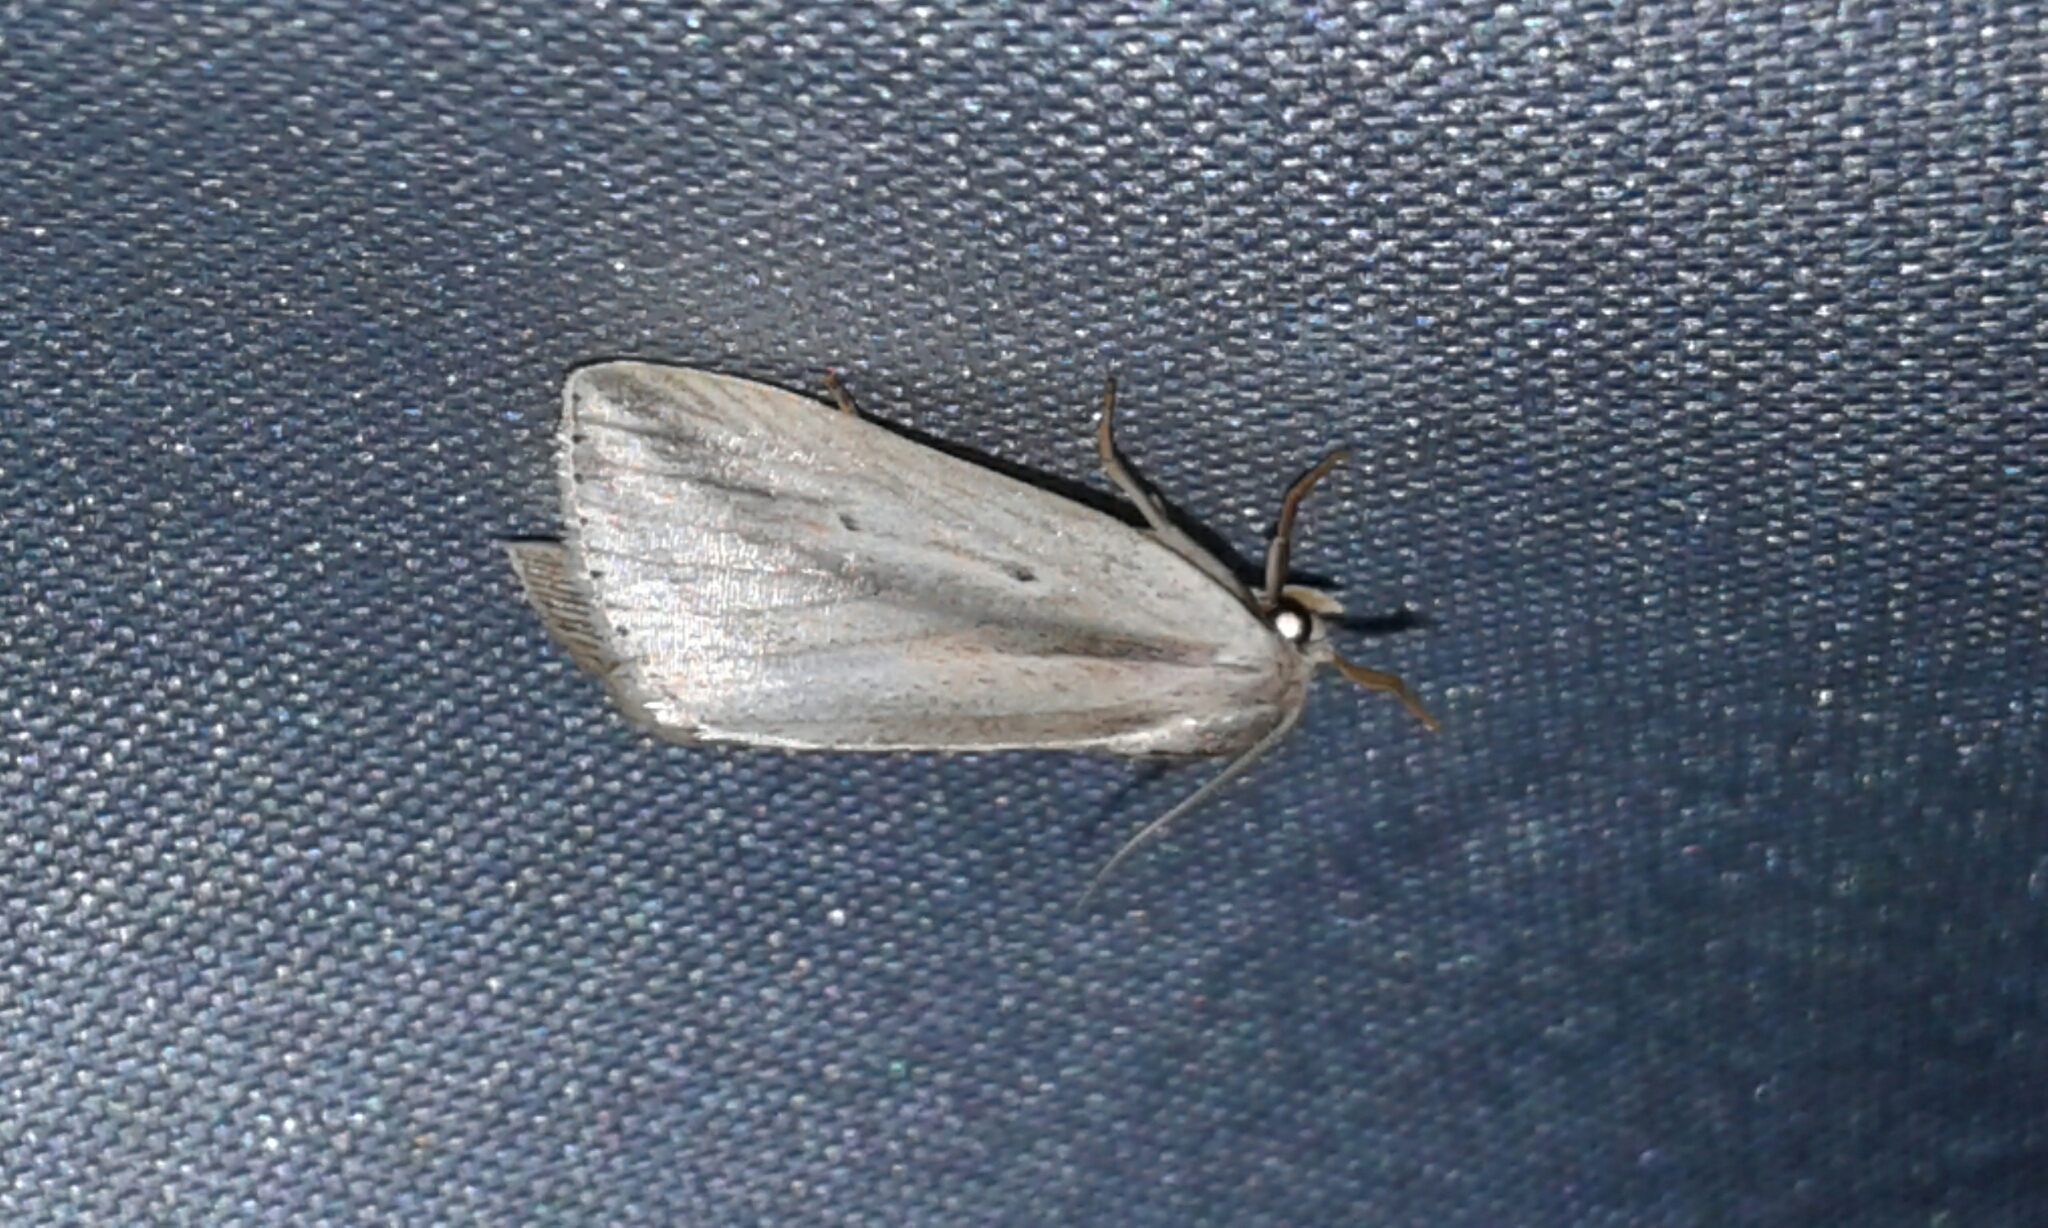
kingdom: Animalia
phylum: Arthropoda
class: Insecta
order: Lepidoptera
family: Noctuidae
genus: Amolita
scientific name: Amolita fessa
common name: Feeble grass moth
